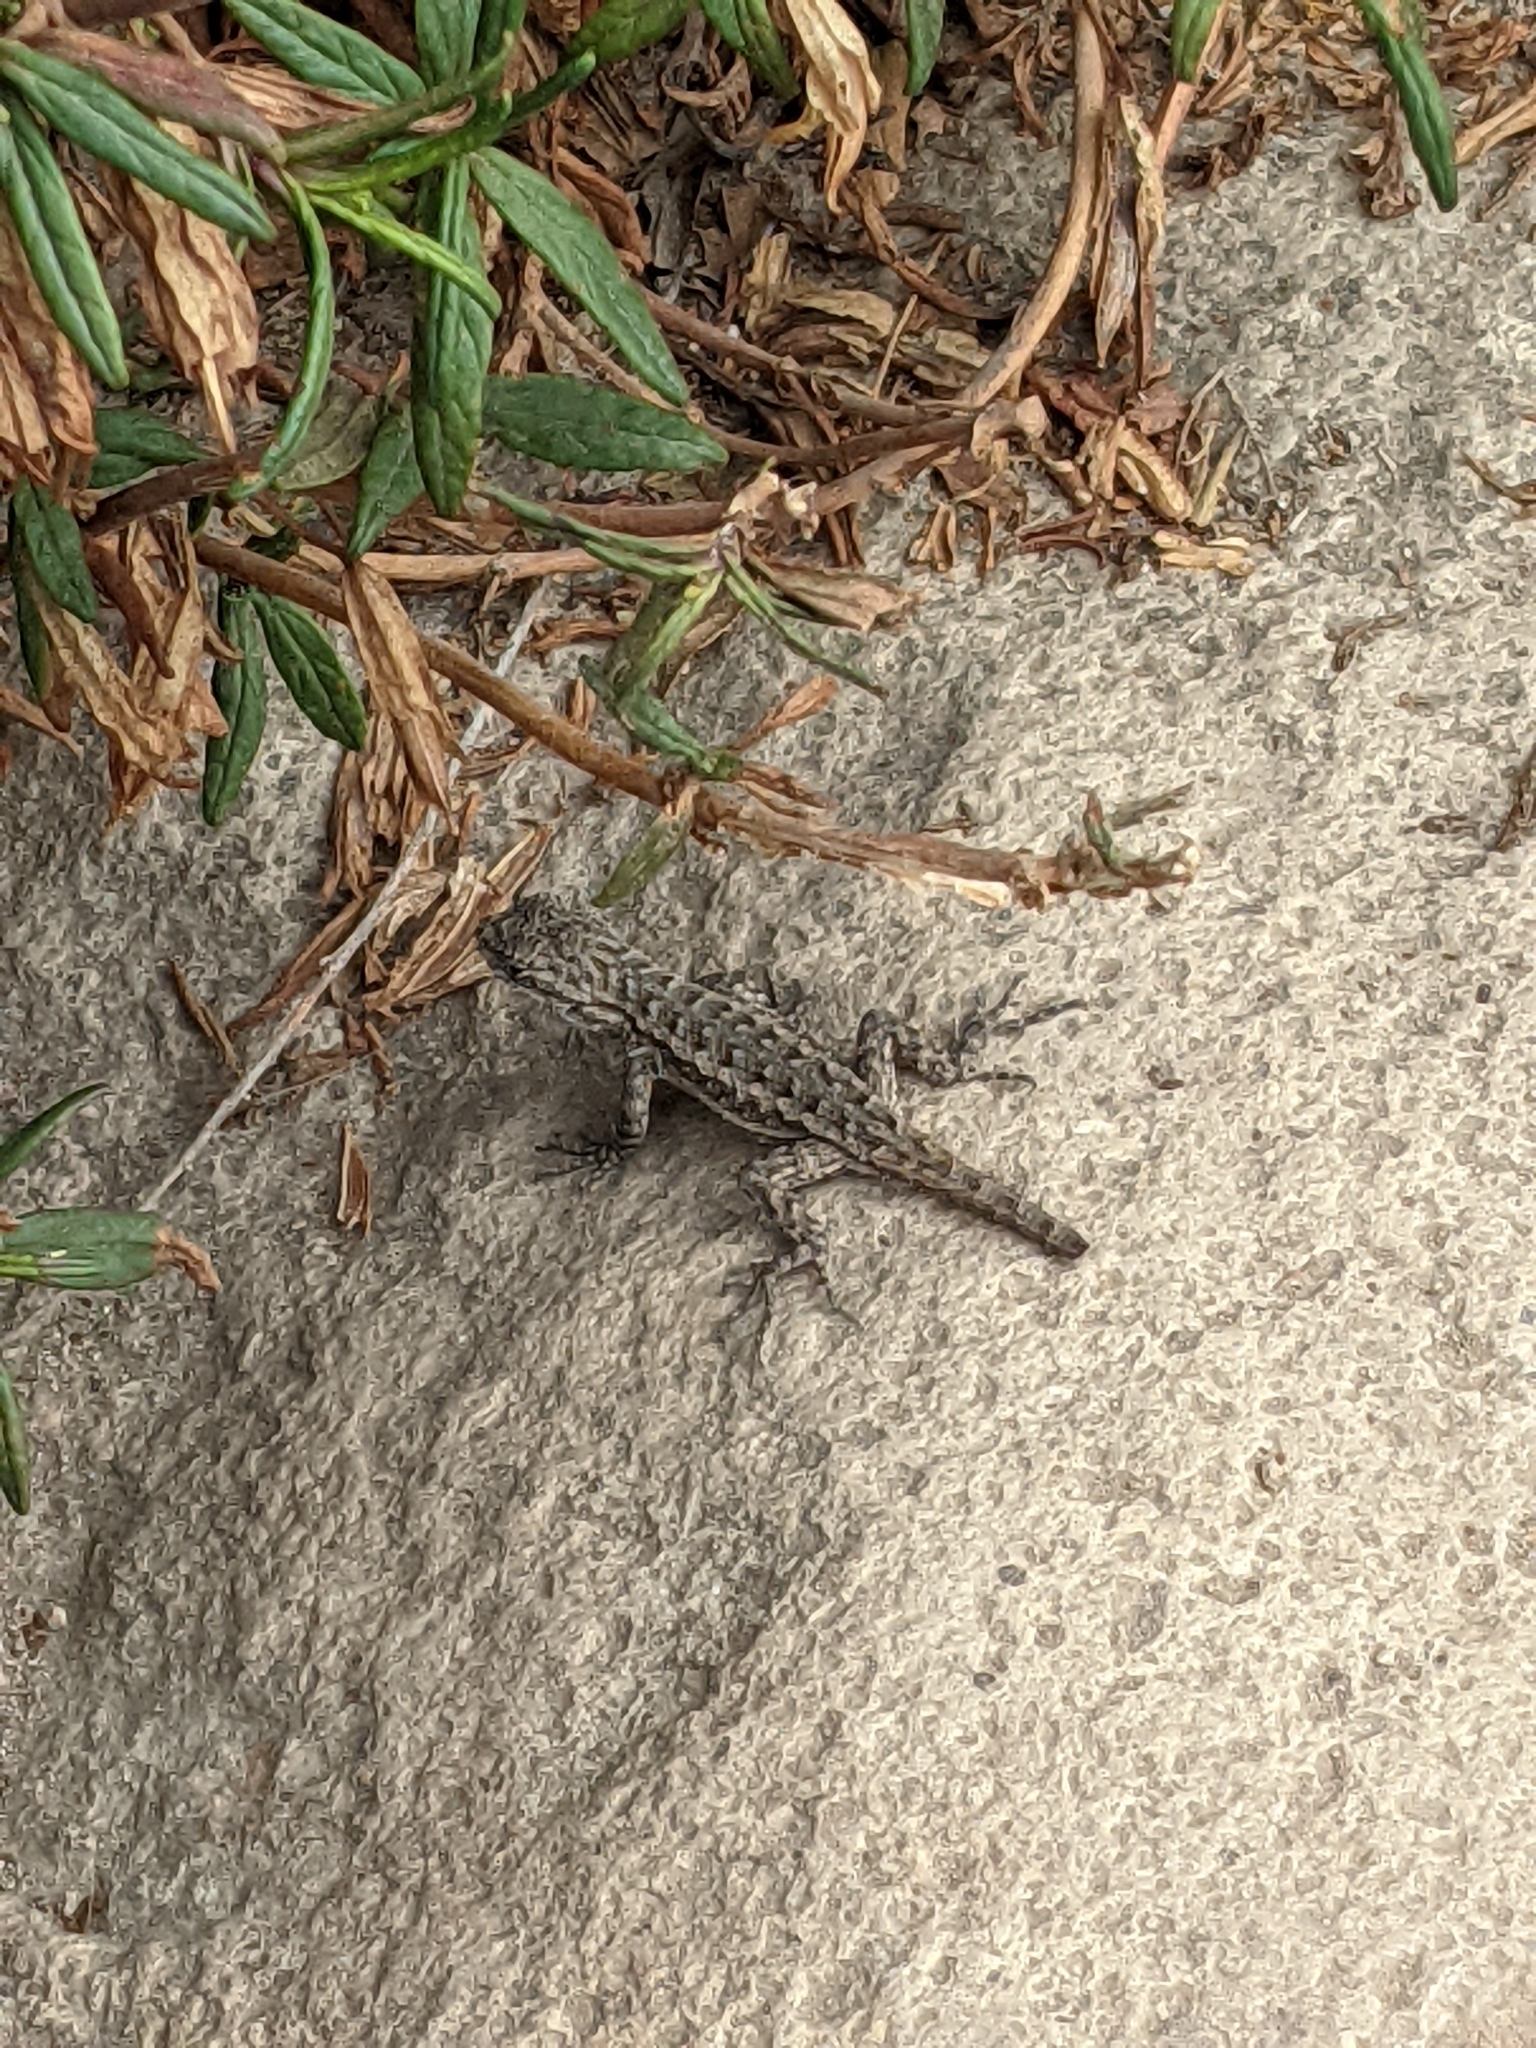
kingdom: Animalia
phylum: Chordata
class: Squamata
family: Phrynosomatidae
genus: Sceloporus
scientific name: Sceloporus occidentalis
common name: Western fence lizard
